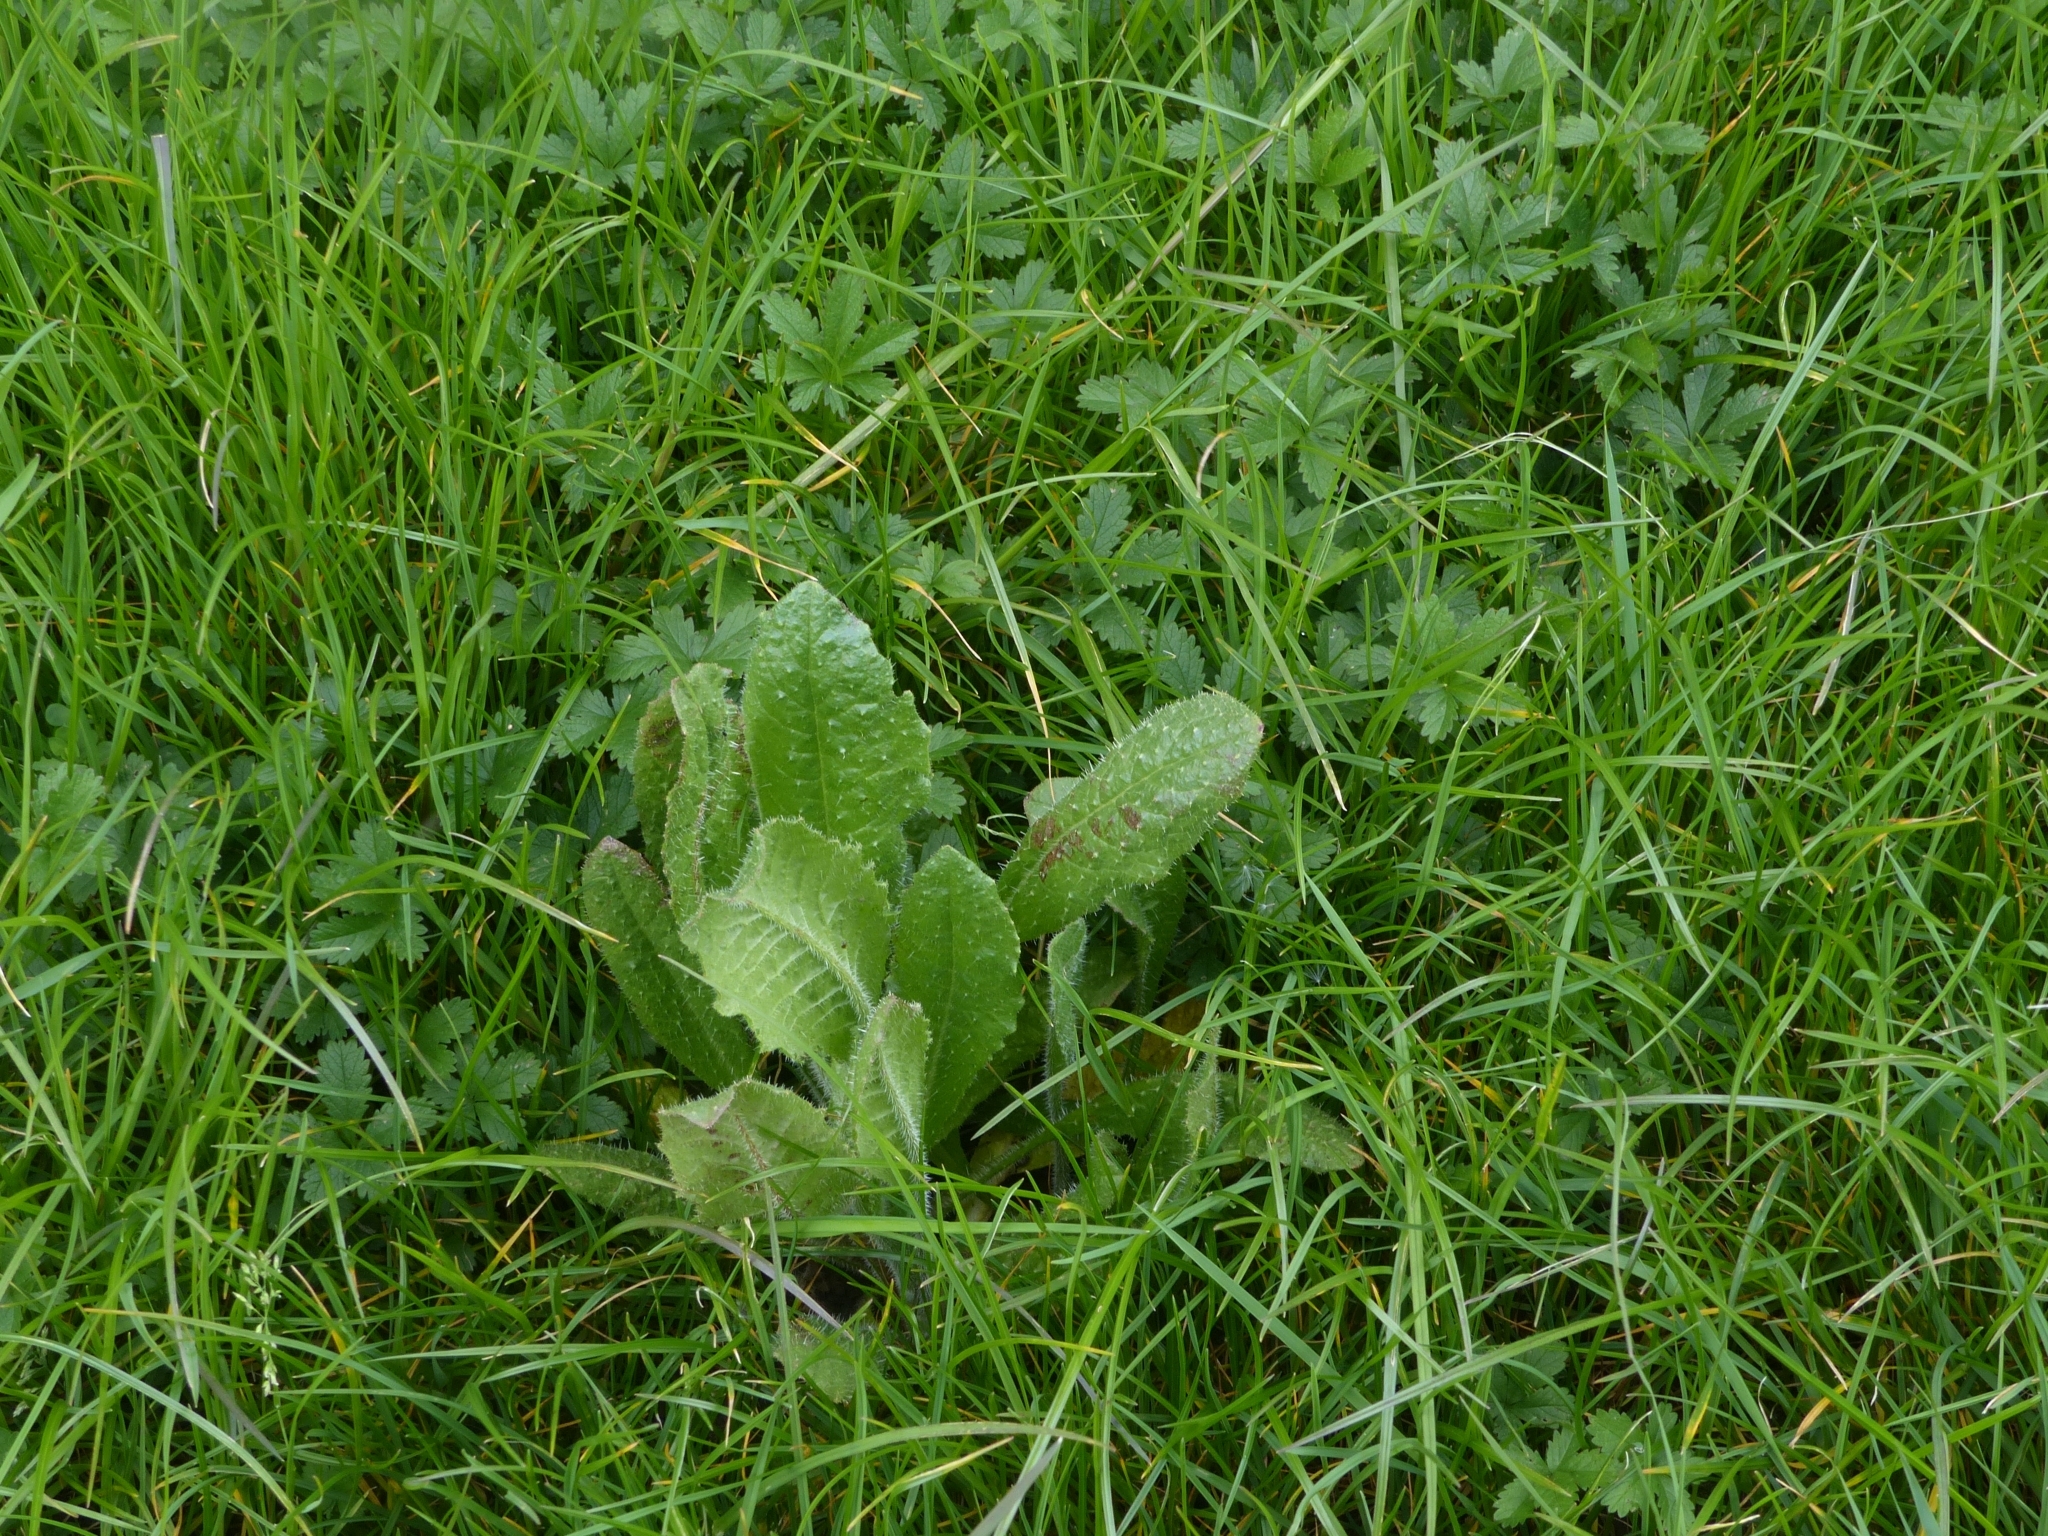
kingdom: Plantae
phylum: Tracheophyta
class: Magnoliopsida
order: Asterales
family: Asteraceae
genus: Helminthotheca
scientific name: Helminthotheca echioides
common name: Ox-tongue
